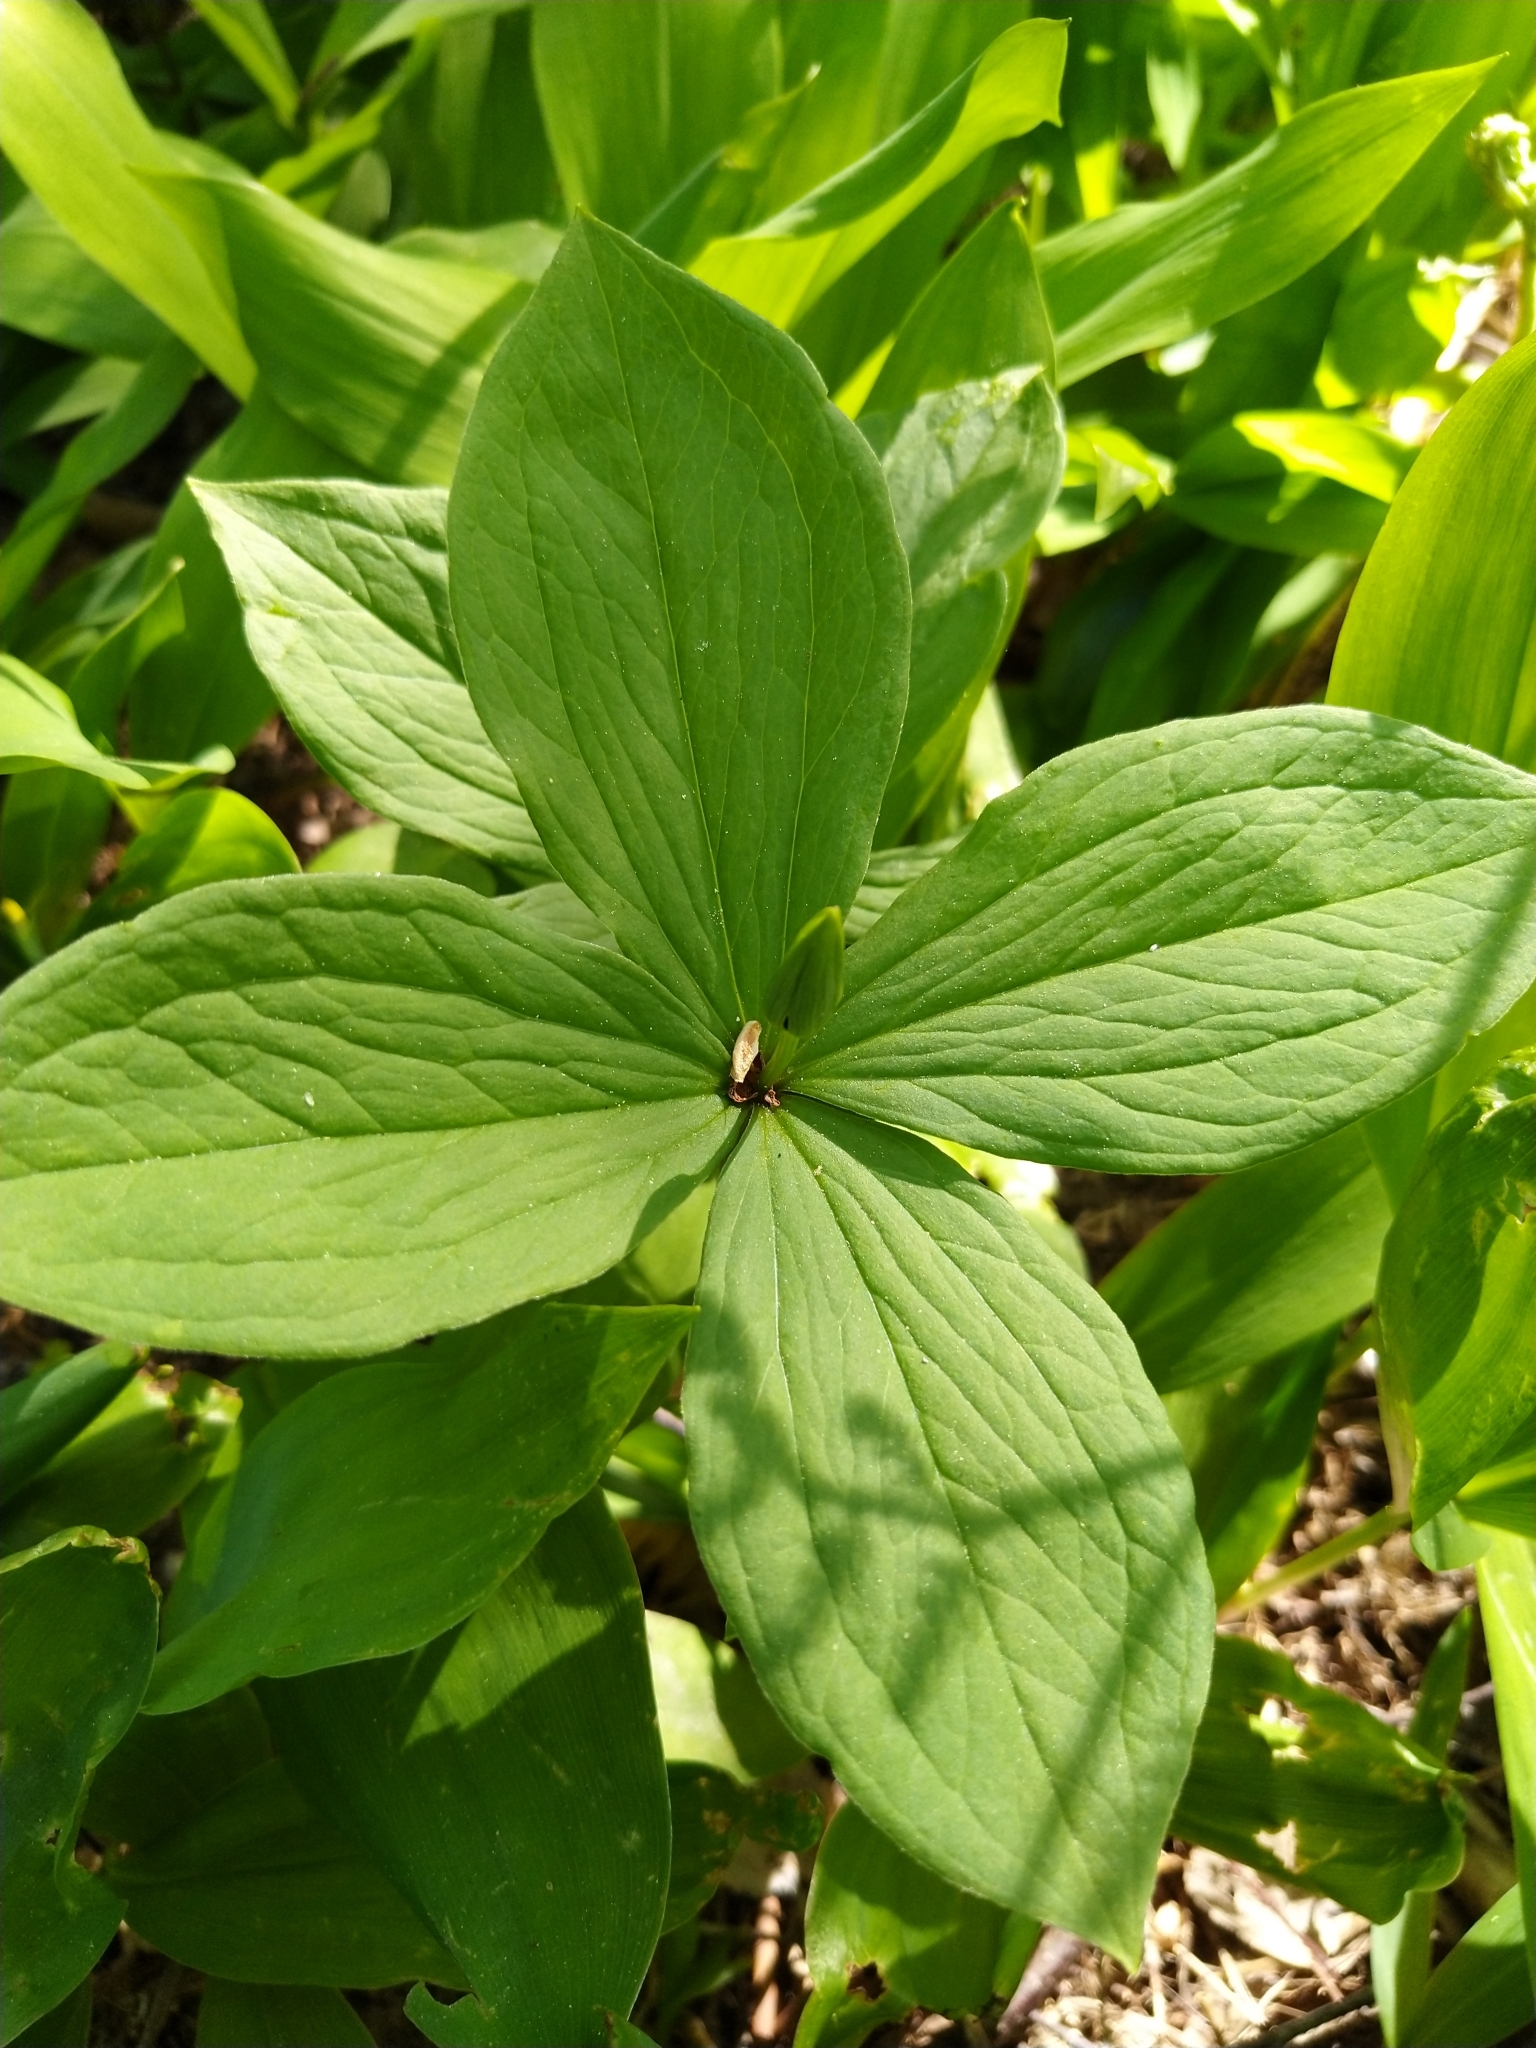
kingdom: Plantae
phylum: Tracheophyta
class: Liliopsida
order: Liliales
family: Melanthiaceae
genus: Paris
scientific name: Paris quadrifolia
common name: Herb-paris
